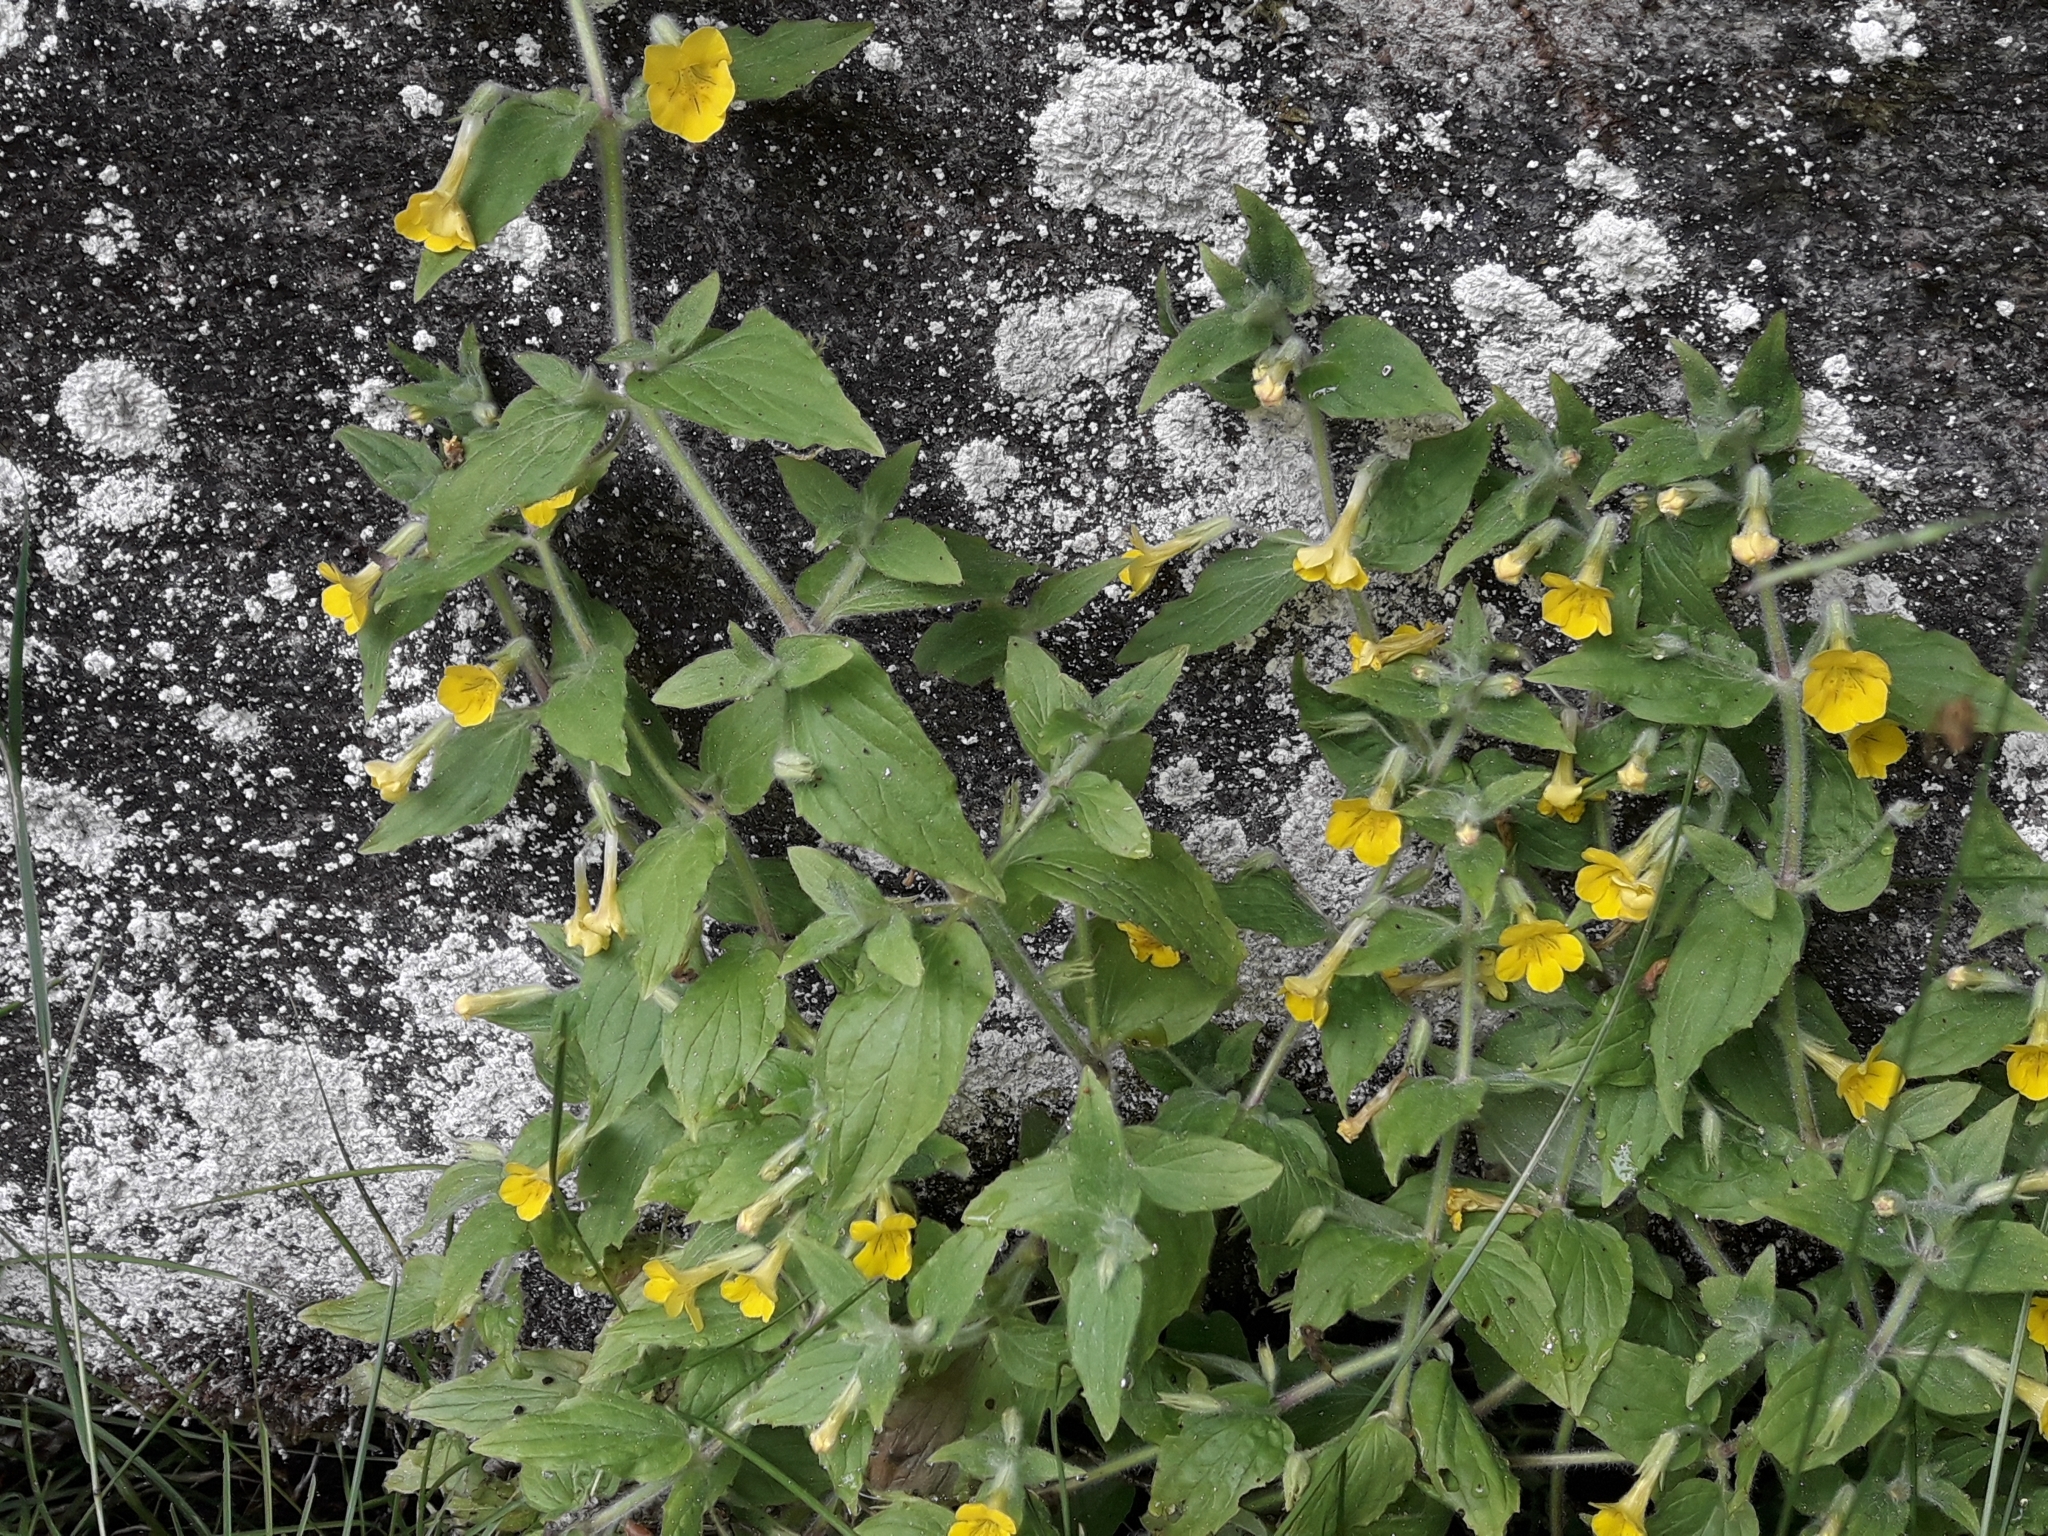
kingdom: Plantae
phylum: Tracheophyta
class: Magnoliopsida
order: Lamiales
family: Phrymaceae
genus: Erythranthe
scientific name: Erythranthe moschata
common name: Muskflower
